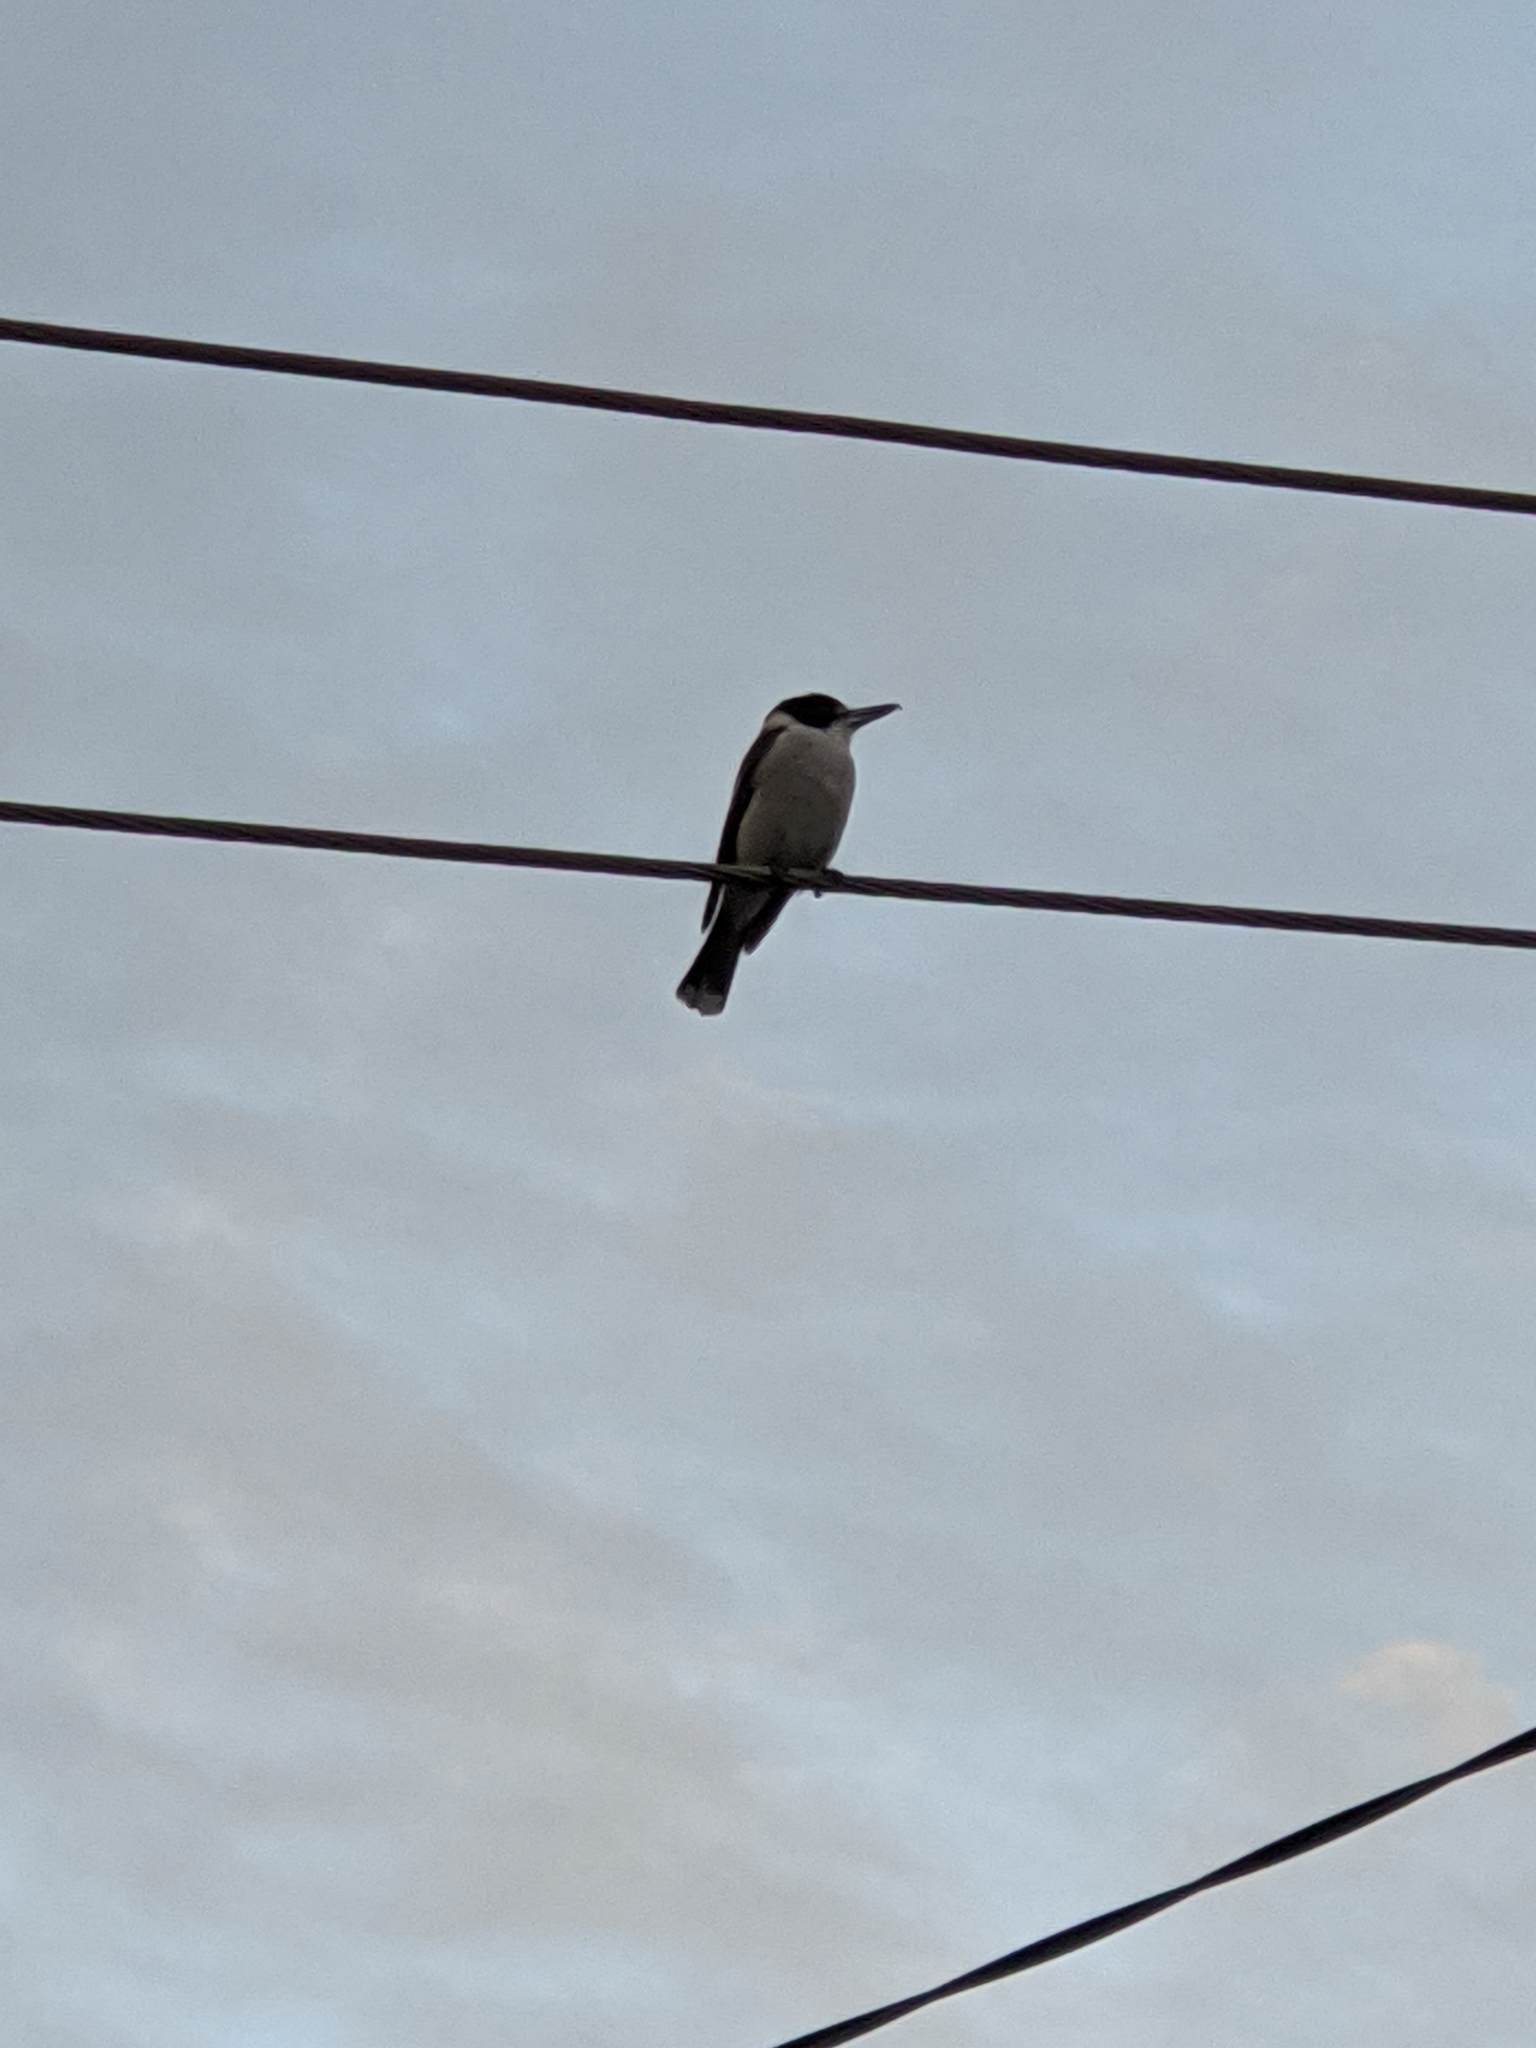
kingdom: Animalia
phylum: Chordata
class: Aves
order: Passeriformes
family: Cracticidae
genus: Cracticus
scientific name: Cracticus torquatus
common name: Grey butcherbird
